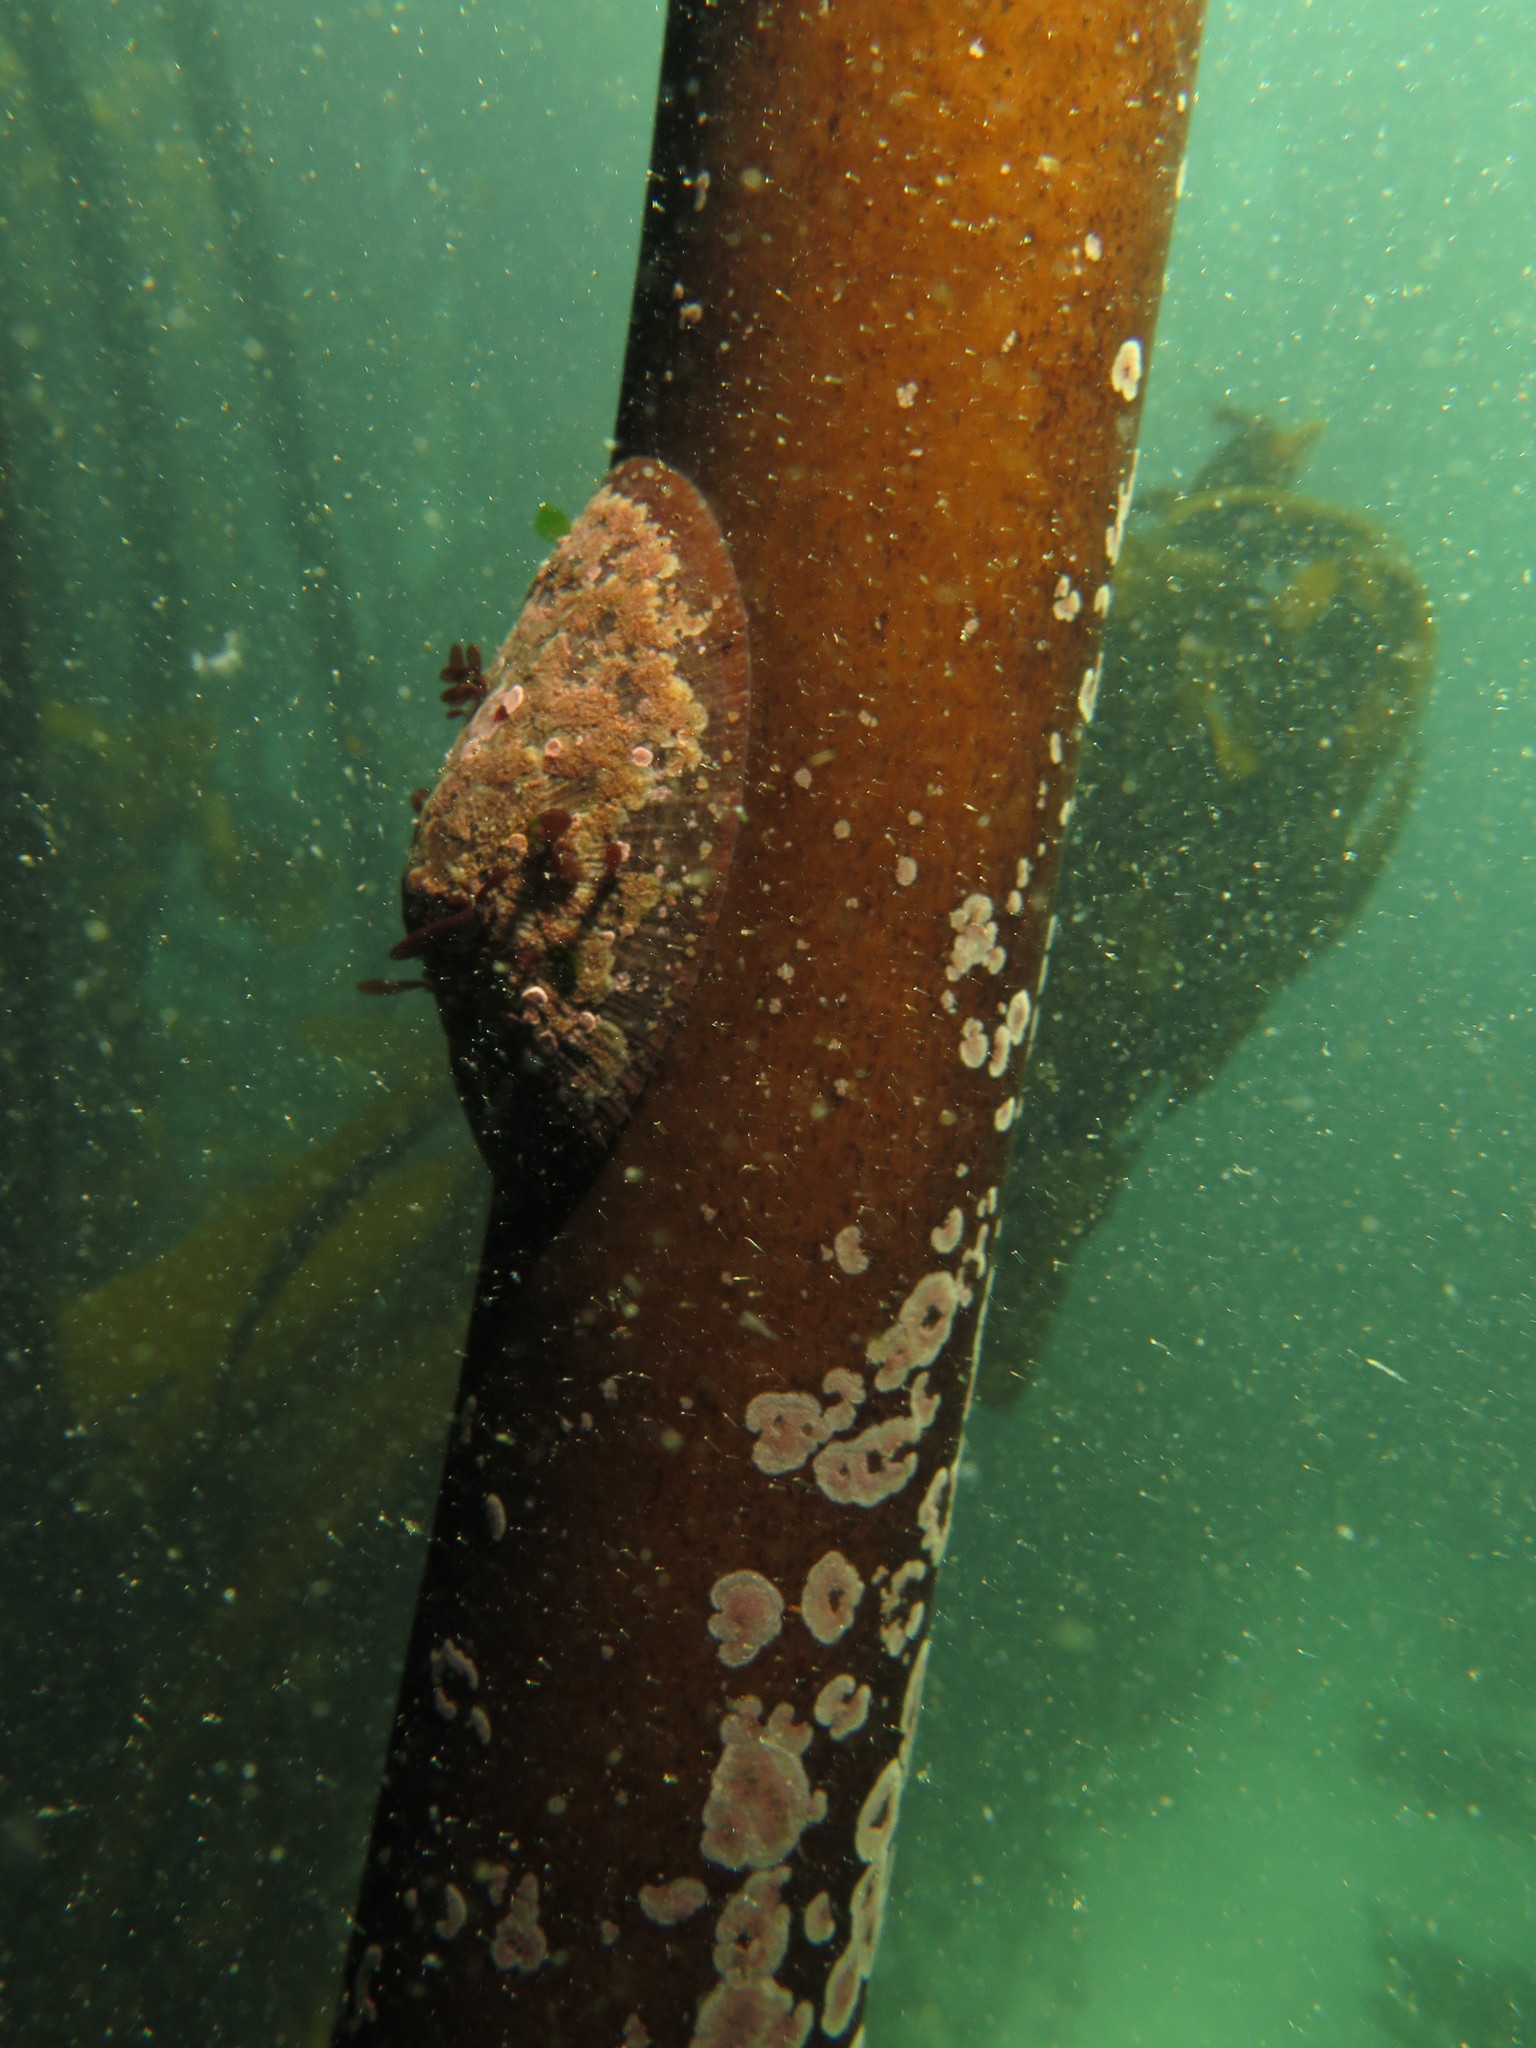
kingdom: Animalia
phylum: Mollusca
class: Gastropoda
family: Patellidae
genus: Cymbula
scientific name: Cymbula compressa
